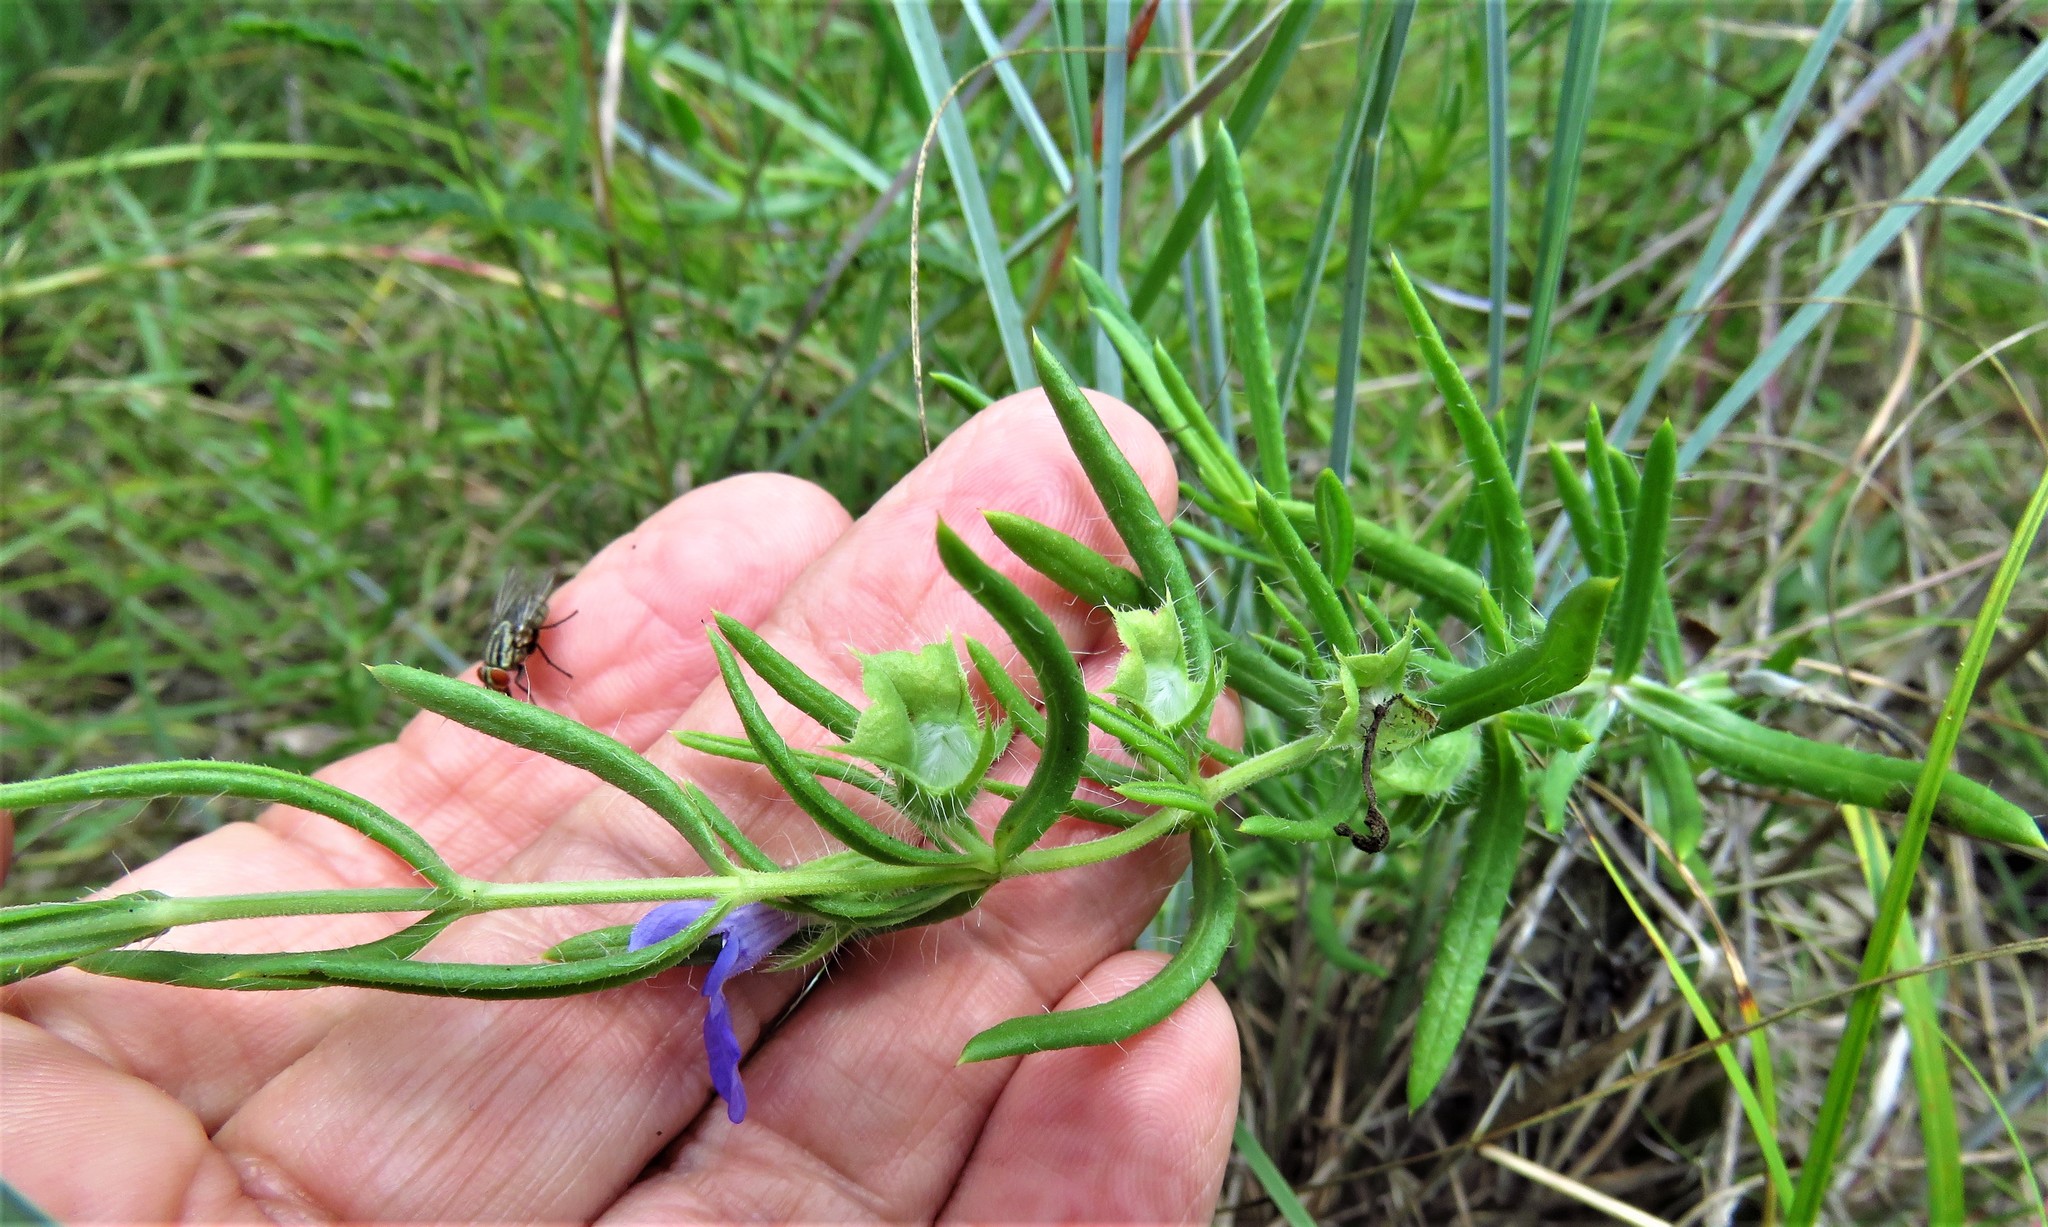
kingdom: Plantae
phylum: Tracheophyta
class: Magnoliopsida
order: Lamiales
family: Lamiaceae
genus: Salvia
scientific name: Salvia texana
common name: Texas sage
